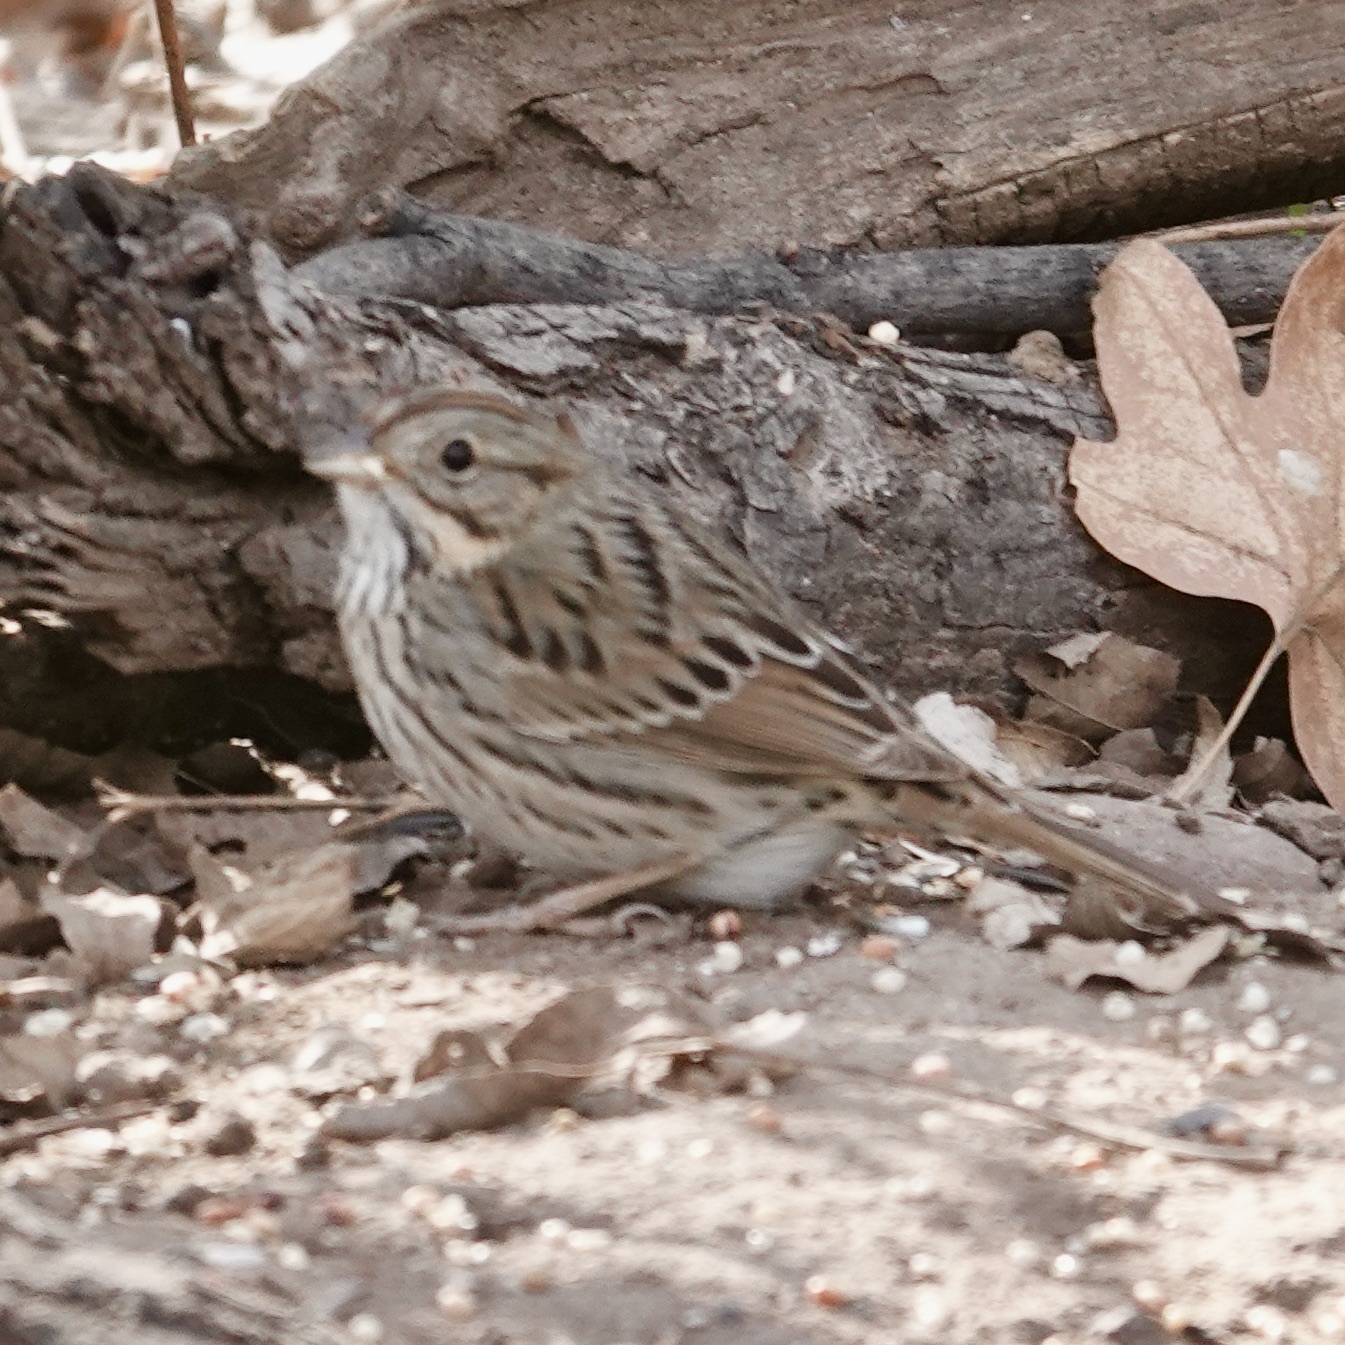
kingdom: Animalia
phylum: Chordata
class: Aves
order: Passeriformes
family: Passerellidae
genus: Melospiza
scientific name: Melospiza lincolnii
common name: Lincoln's sparrow
